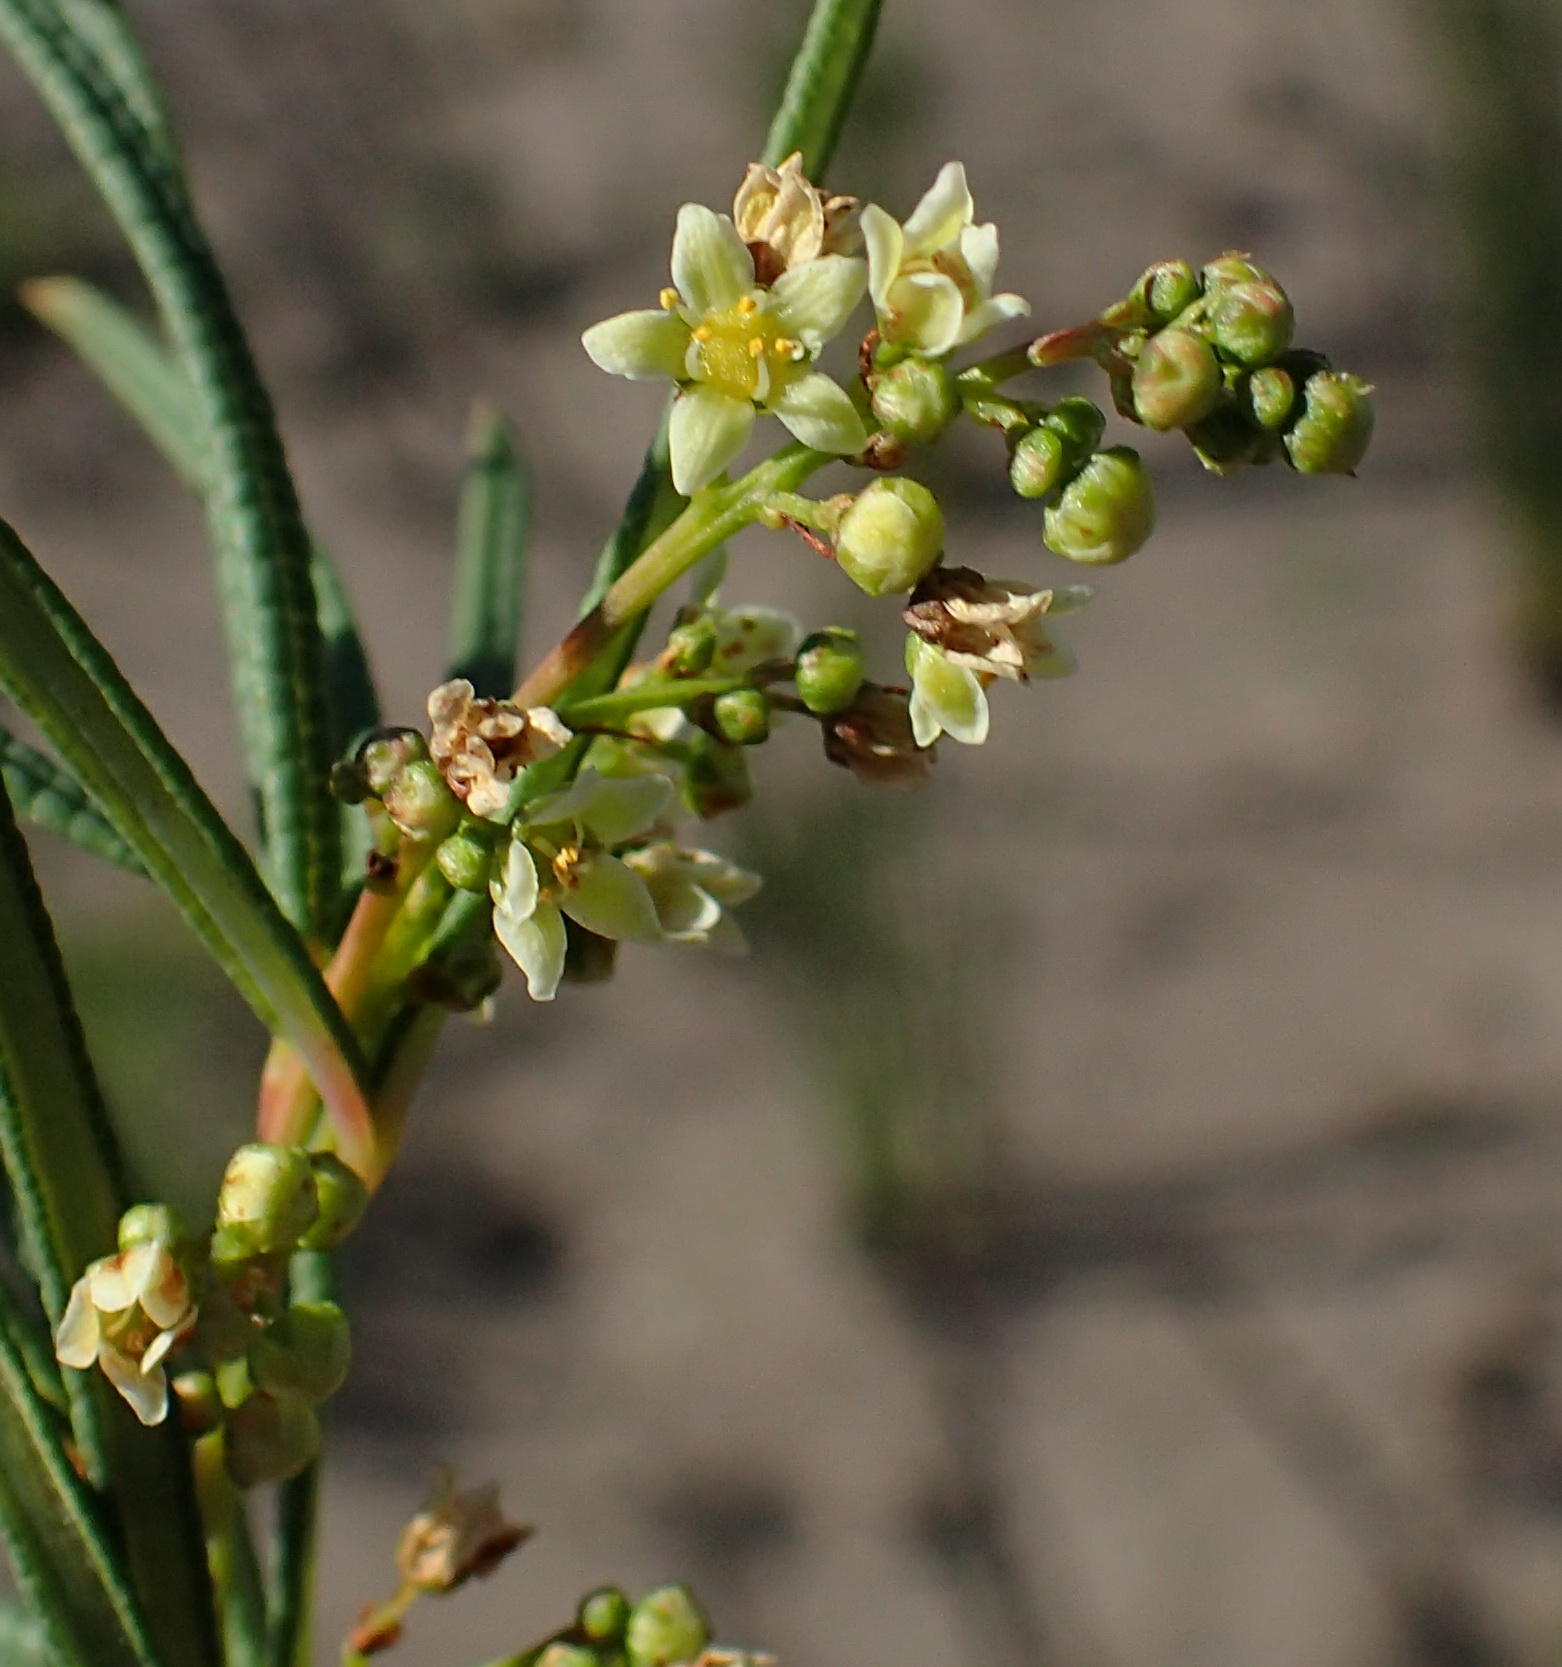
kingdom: Plantae
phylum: Tracheophyta
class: Magnoliopsida
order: Sapindales
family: Anacardiaceae
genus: Searsia
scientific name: Searsia rosmarinifolia
